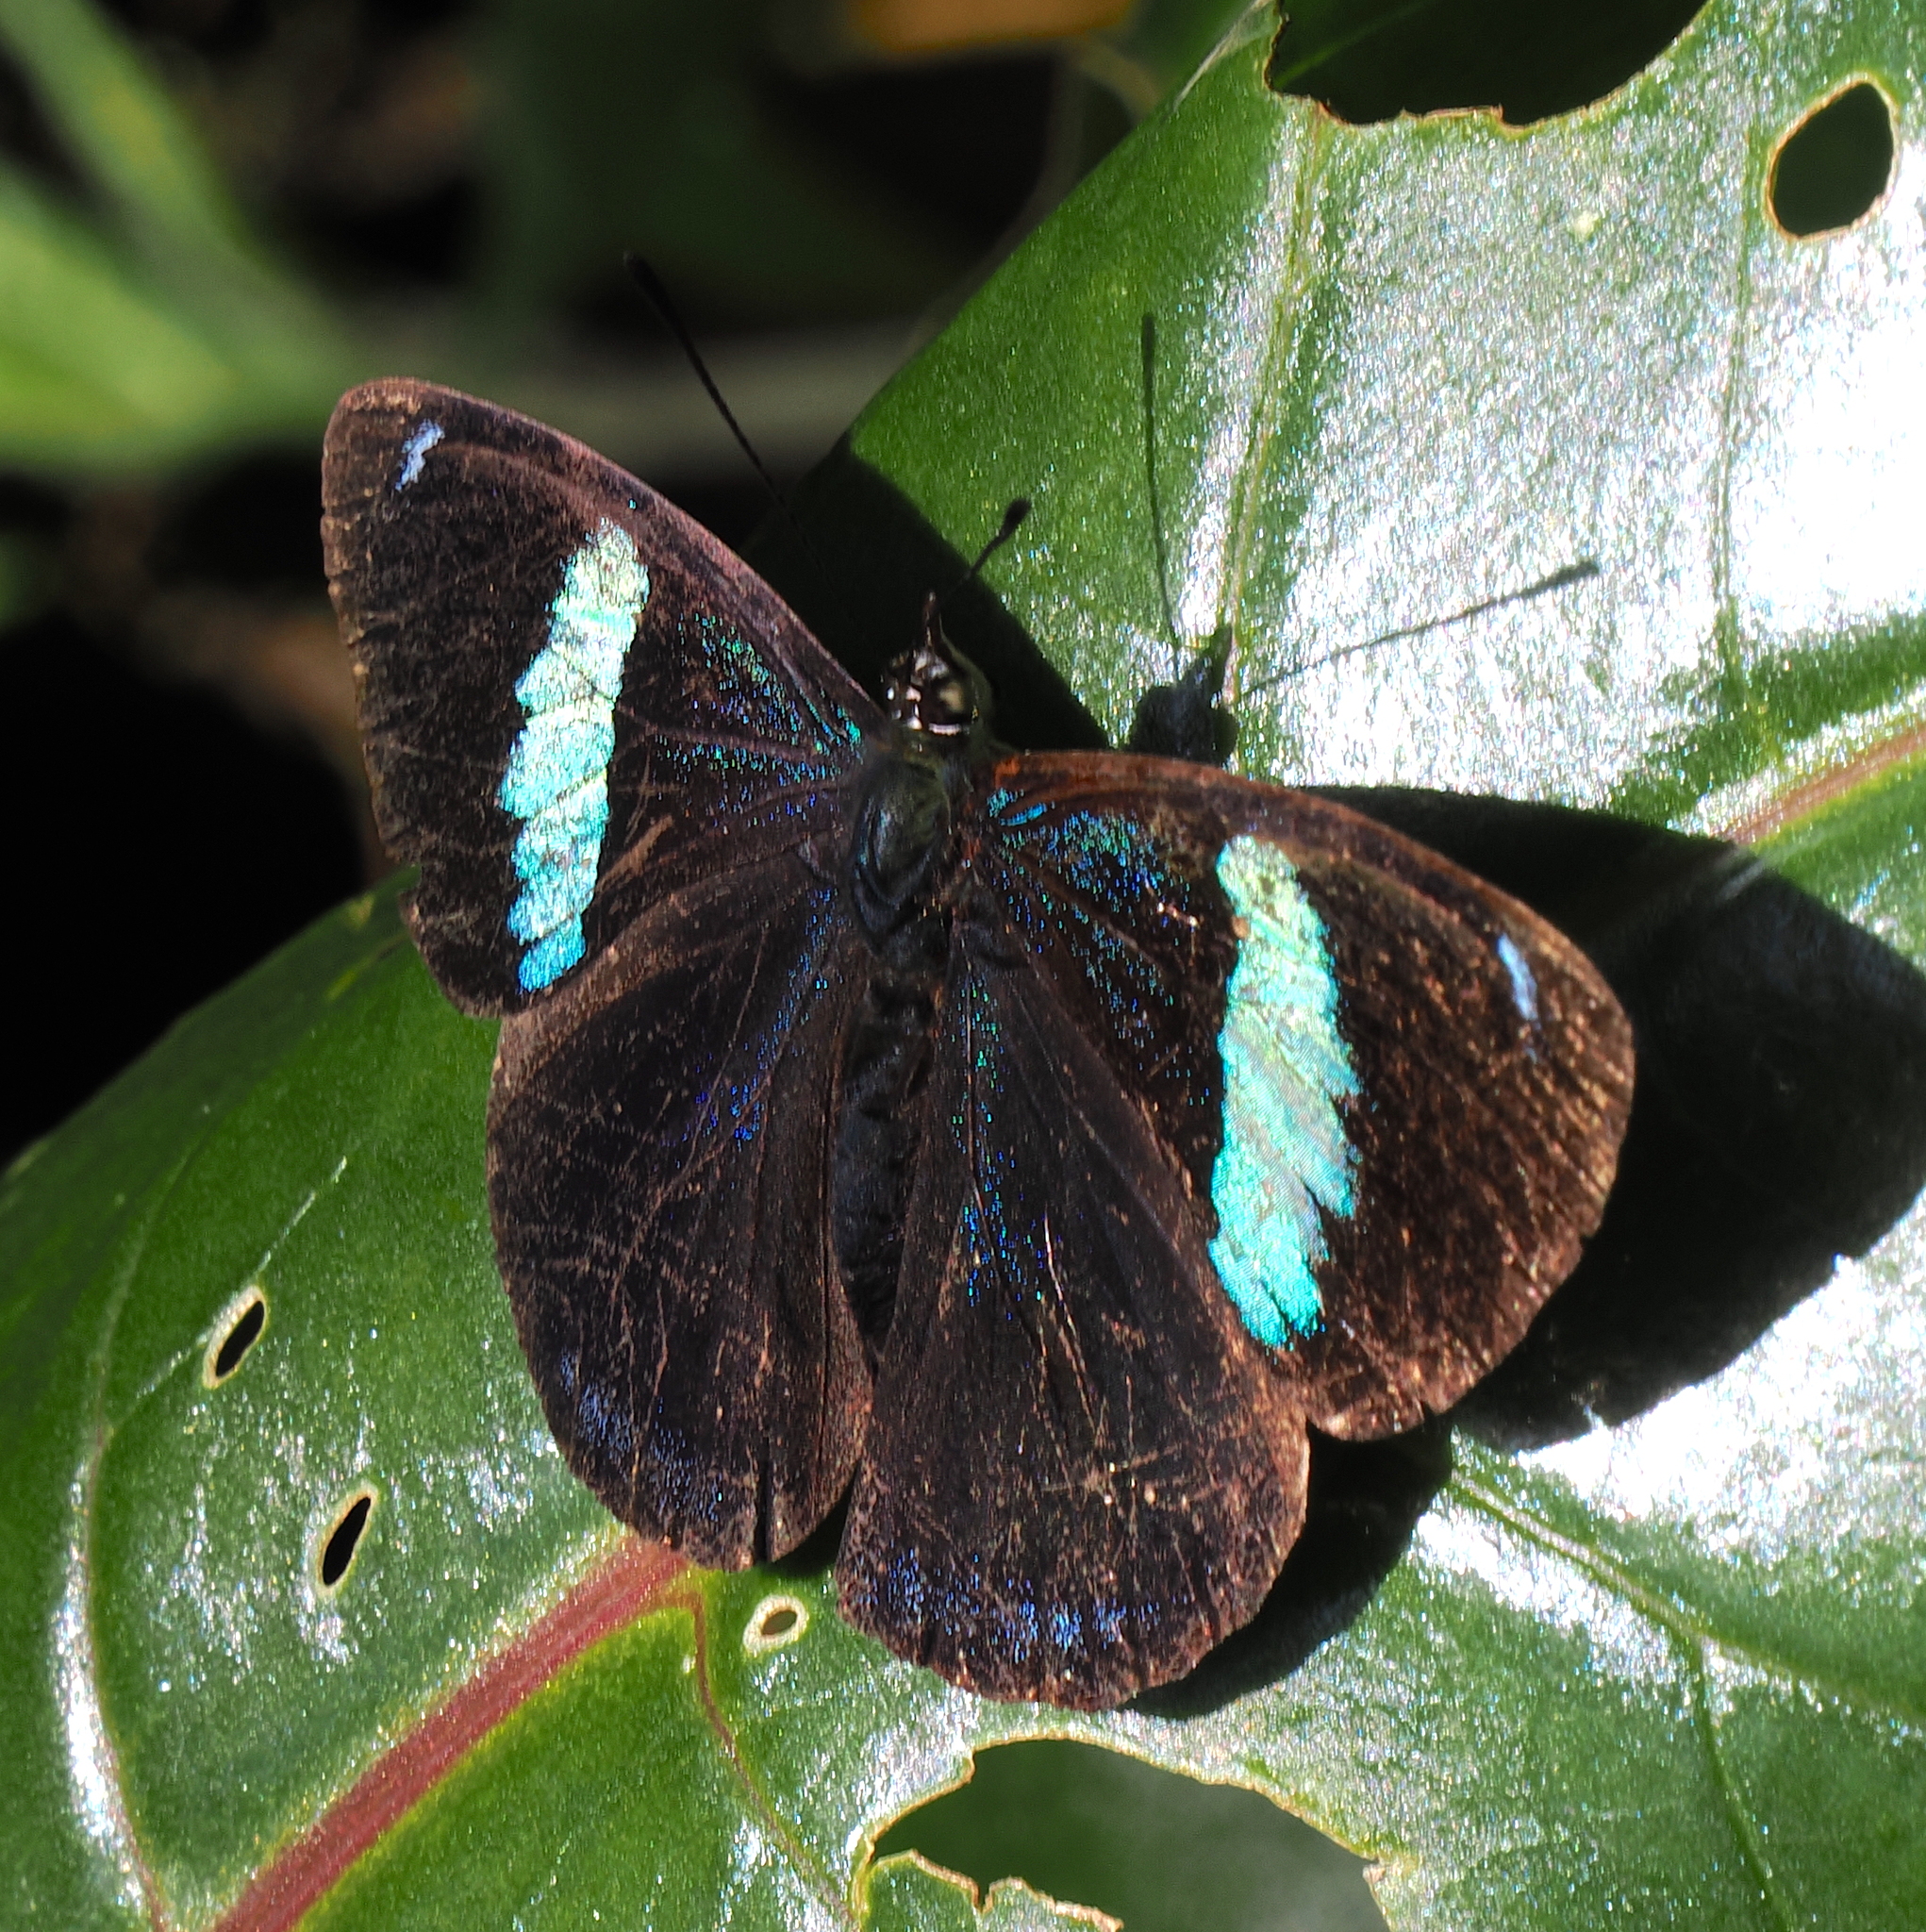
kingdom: Animalia
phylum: Arthropoda
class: Insecta
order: Lepidoptera
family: Nymphalidae
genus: Perisama
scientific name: Perisama oppelii
